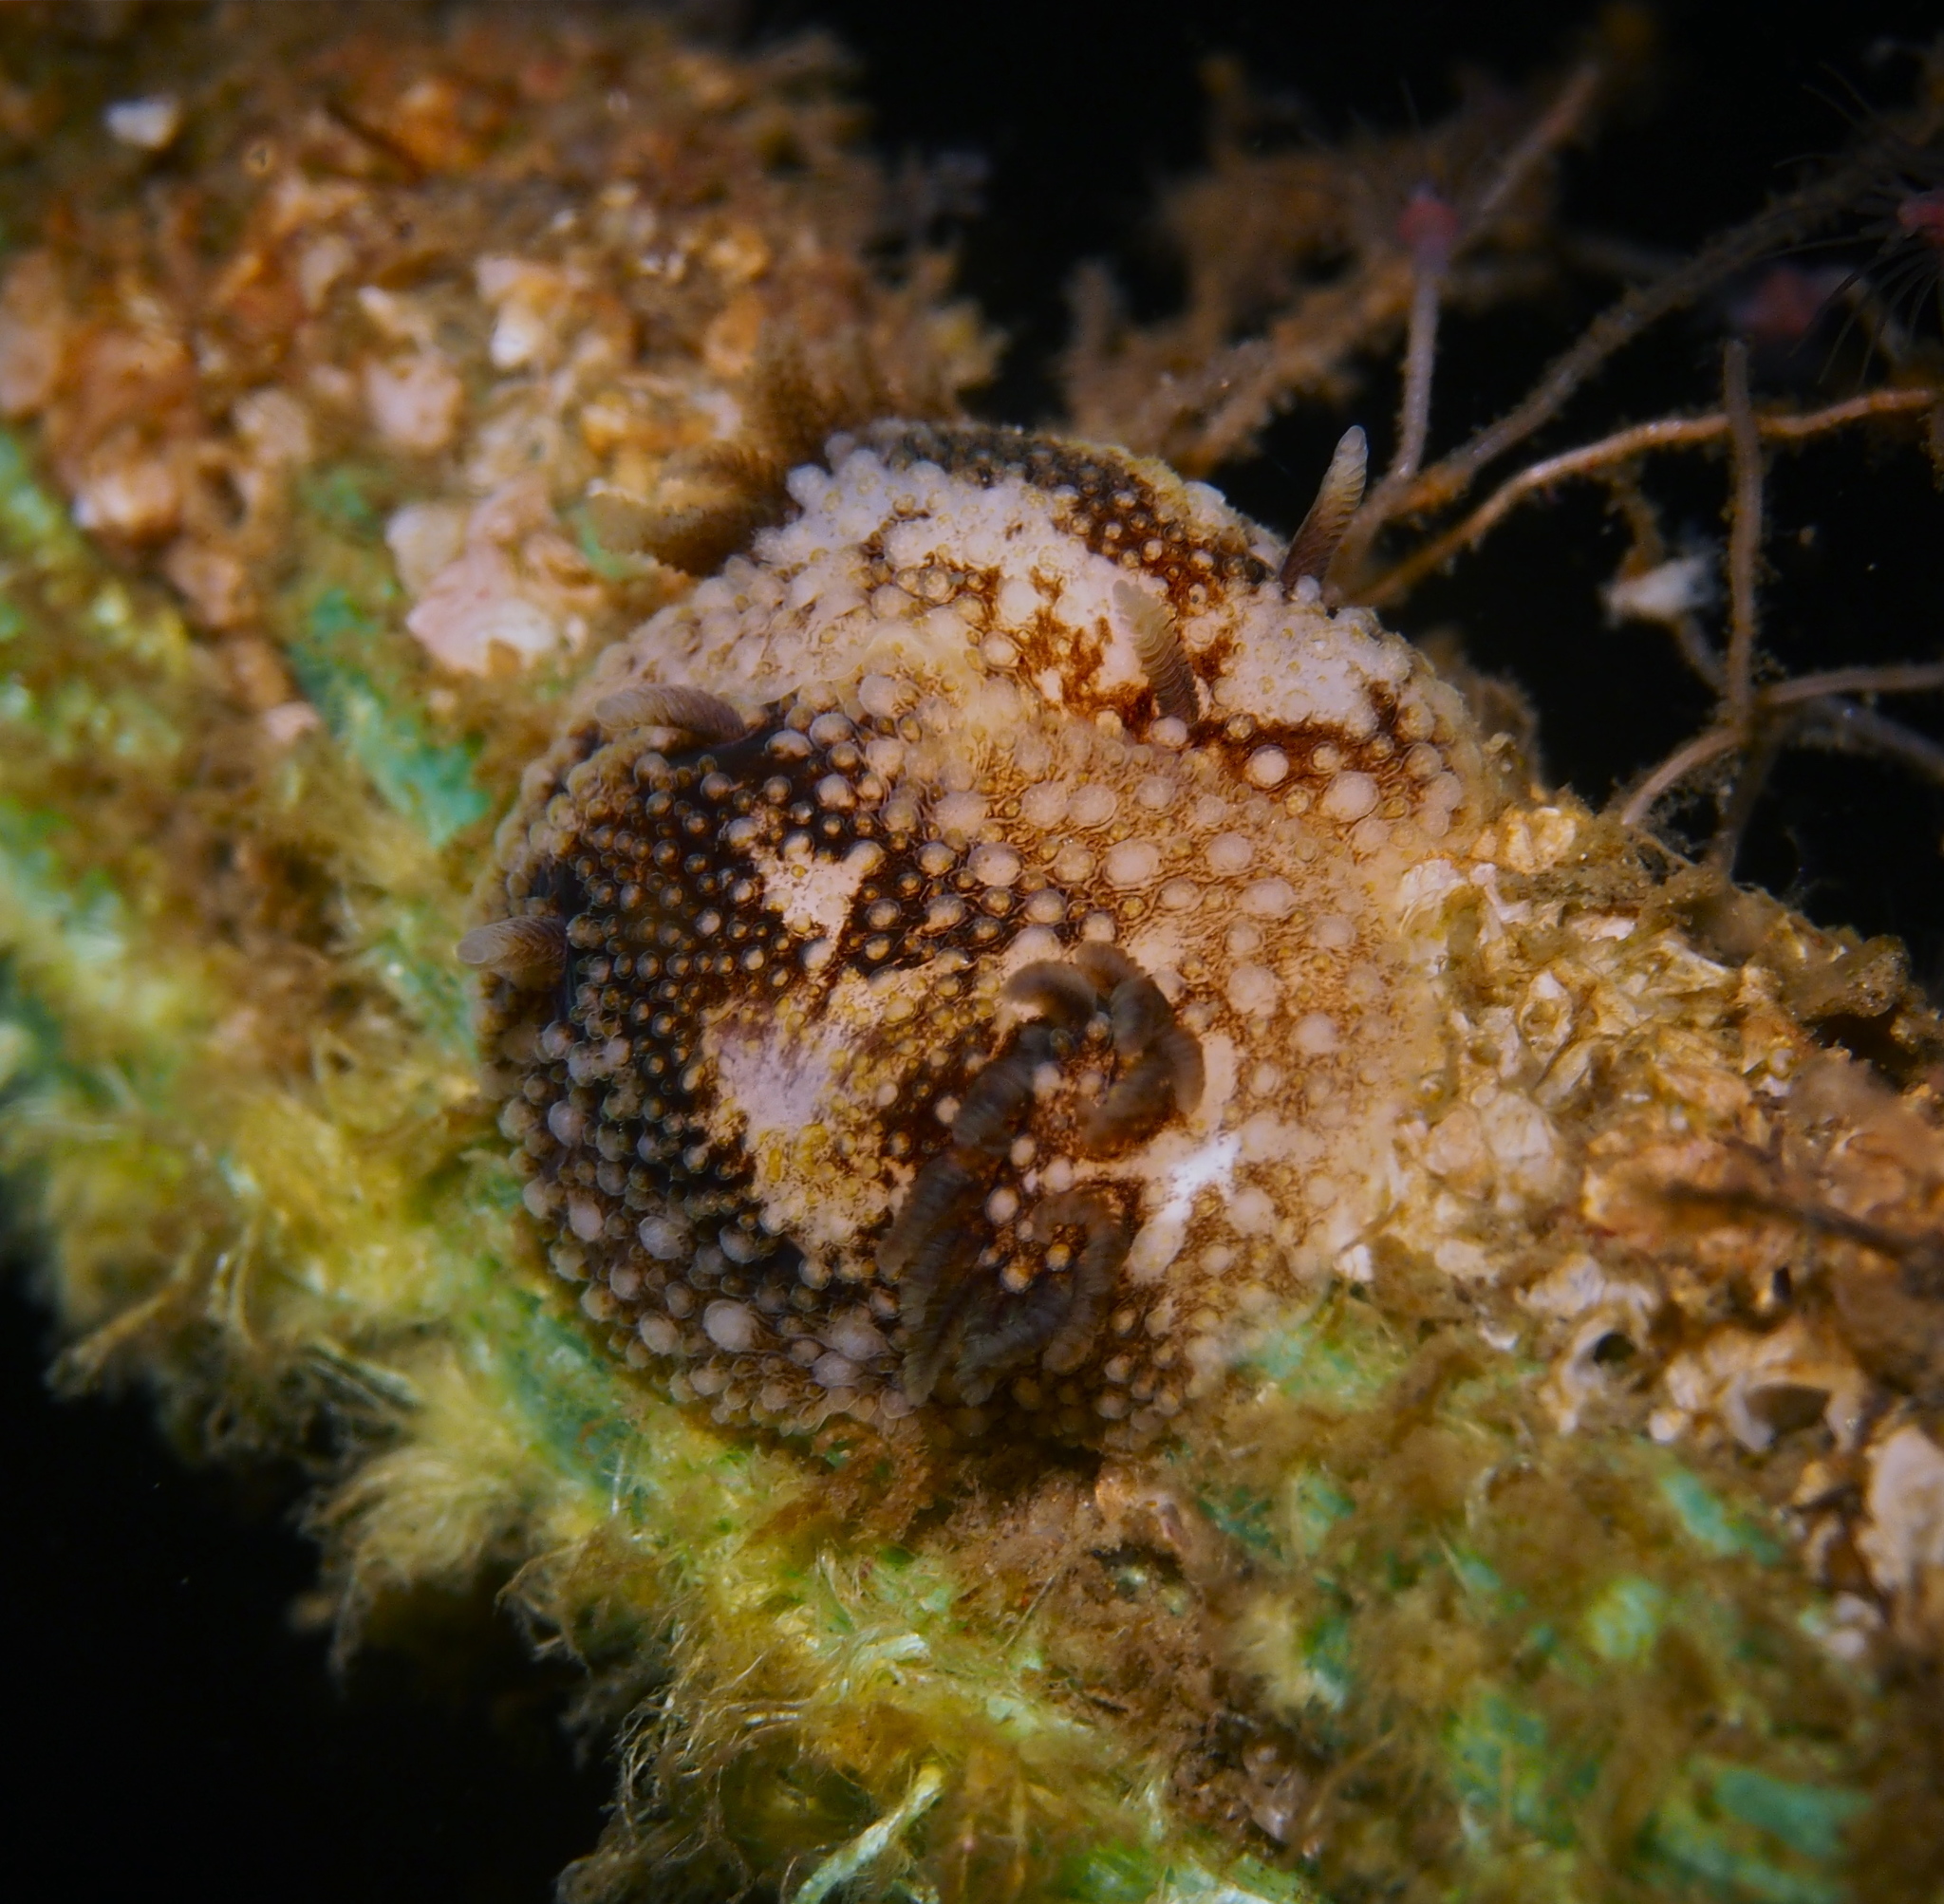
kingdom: Animalia
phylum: Mollusca
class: Gastropoda
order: Nudibranchia
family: Onchidorididae
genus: Onchidoris
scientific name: Onchidoris bilamellata
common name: Barnacle-eating onchidoris
